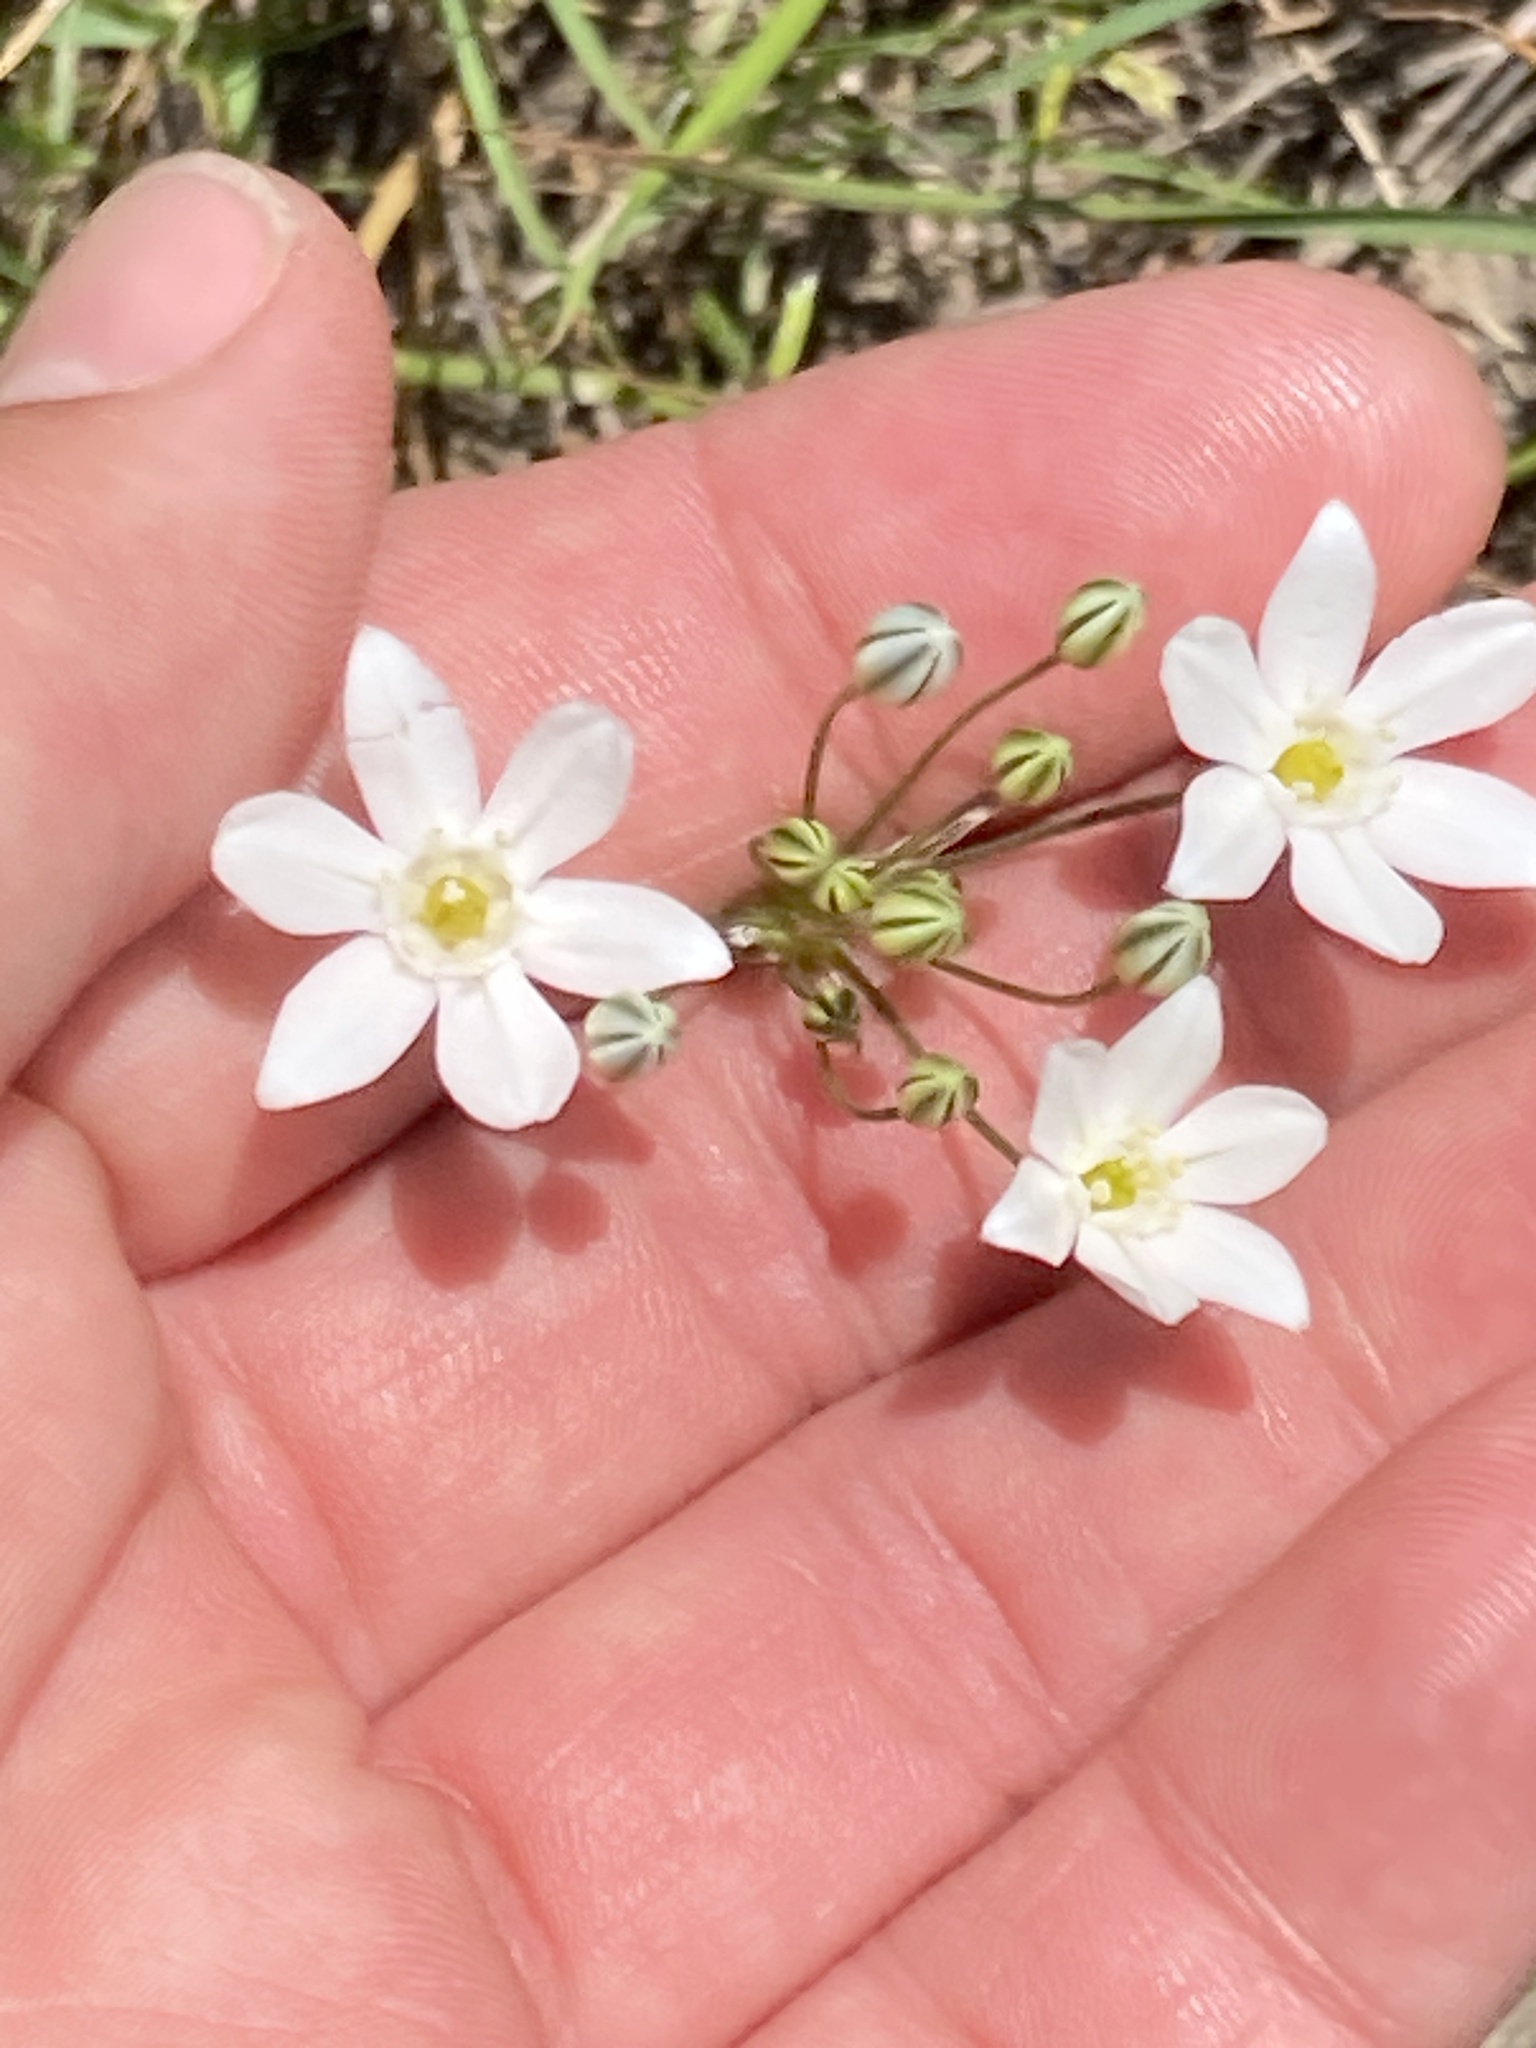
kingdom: Plantae
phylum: Tracheophyta
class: Liliopsida
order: Asparagales
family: Asparagaceae
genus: Triteleia
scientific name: Triteleia hyacinthina
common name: White brodiaea
